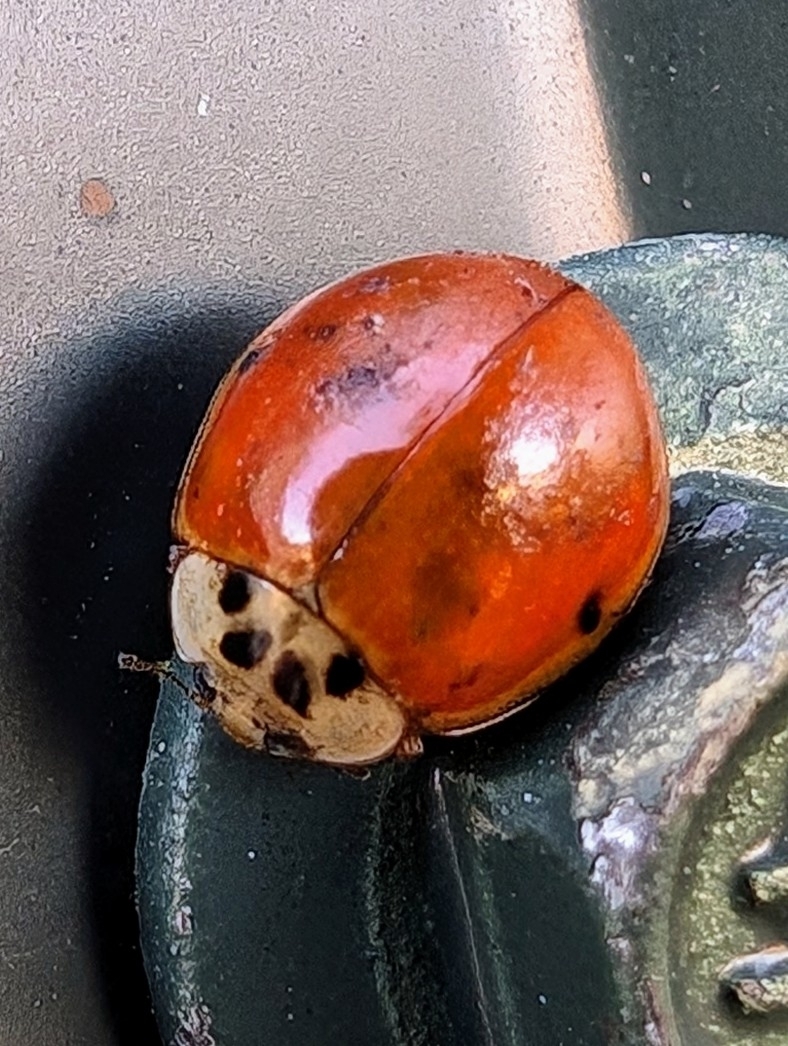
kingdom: Animalia
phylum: Arthropoda
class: Insecta
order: Coleoptera
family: Coccinellidae
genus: Harmonia
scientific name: Harmonia axyridis
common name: Harlequin ladybird
